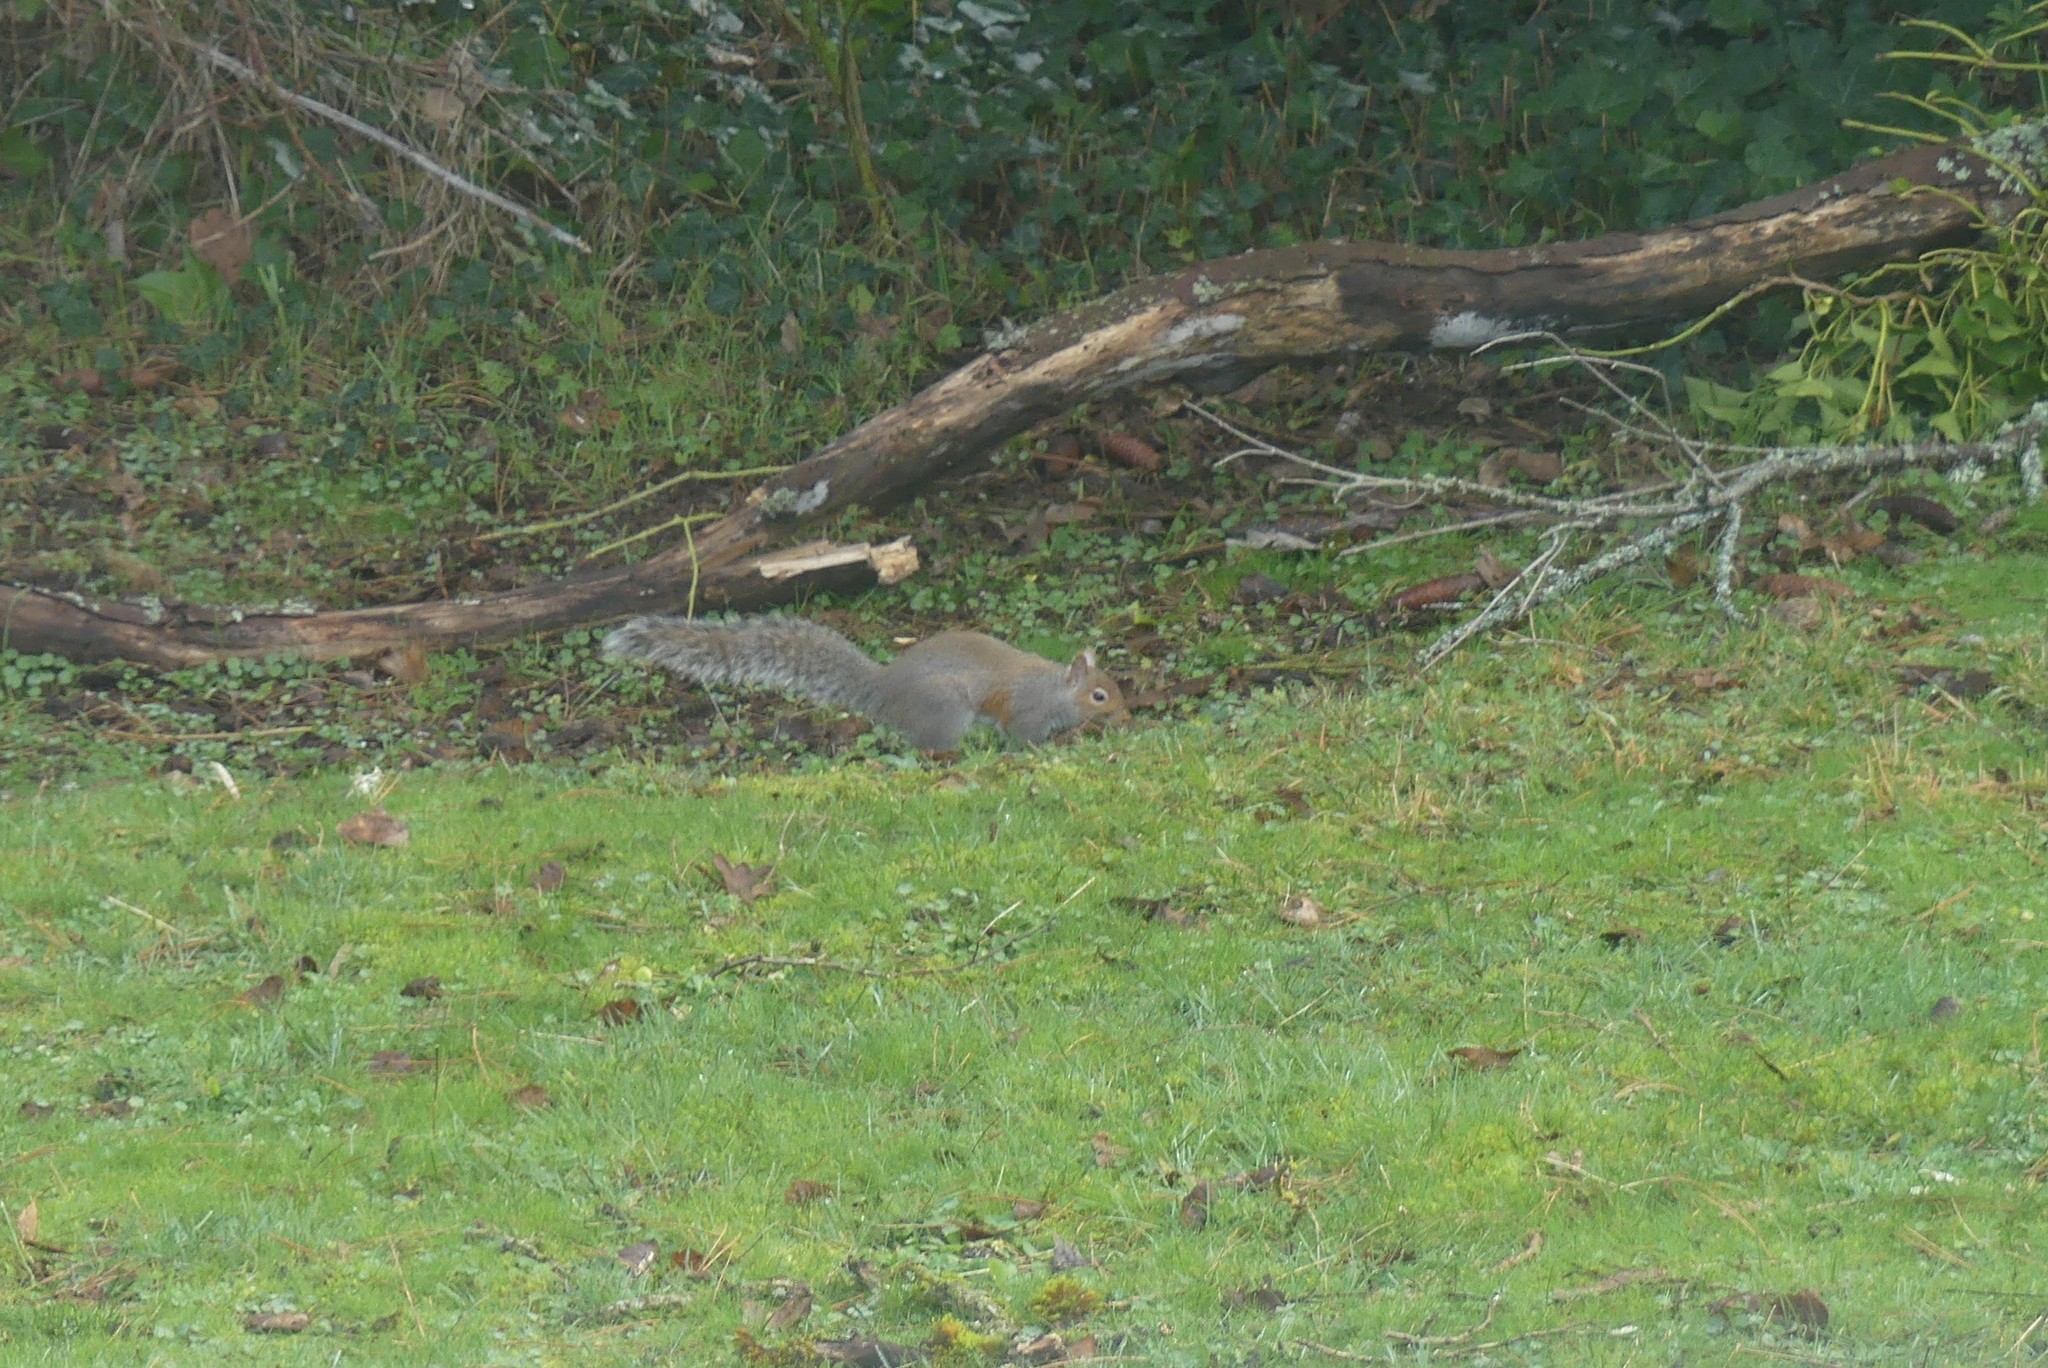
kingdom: Animalia
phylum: Chordata
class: Mammalia
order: Rodentia
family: Sciuridae
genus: Sciurus
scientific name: Sciurus carolinensis
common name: Eastern gray squirrel
